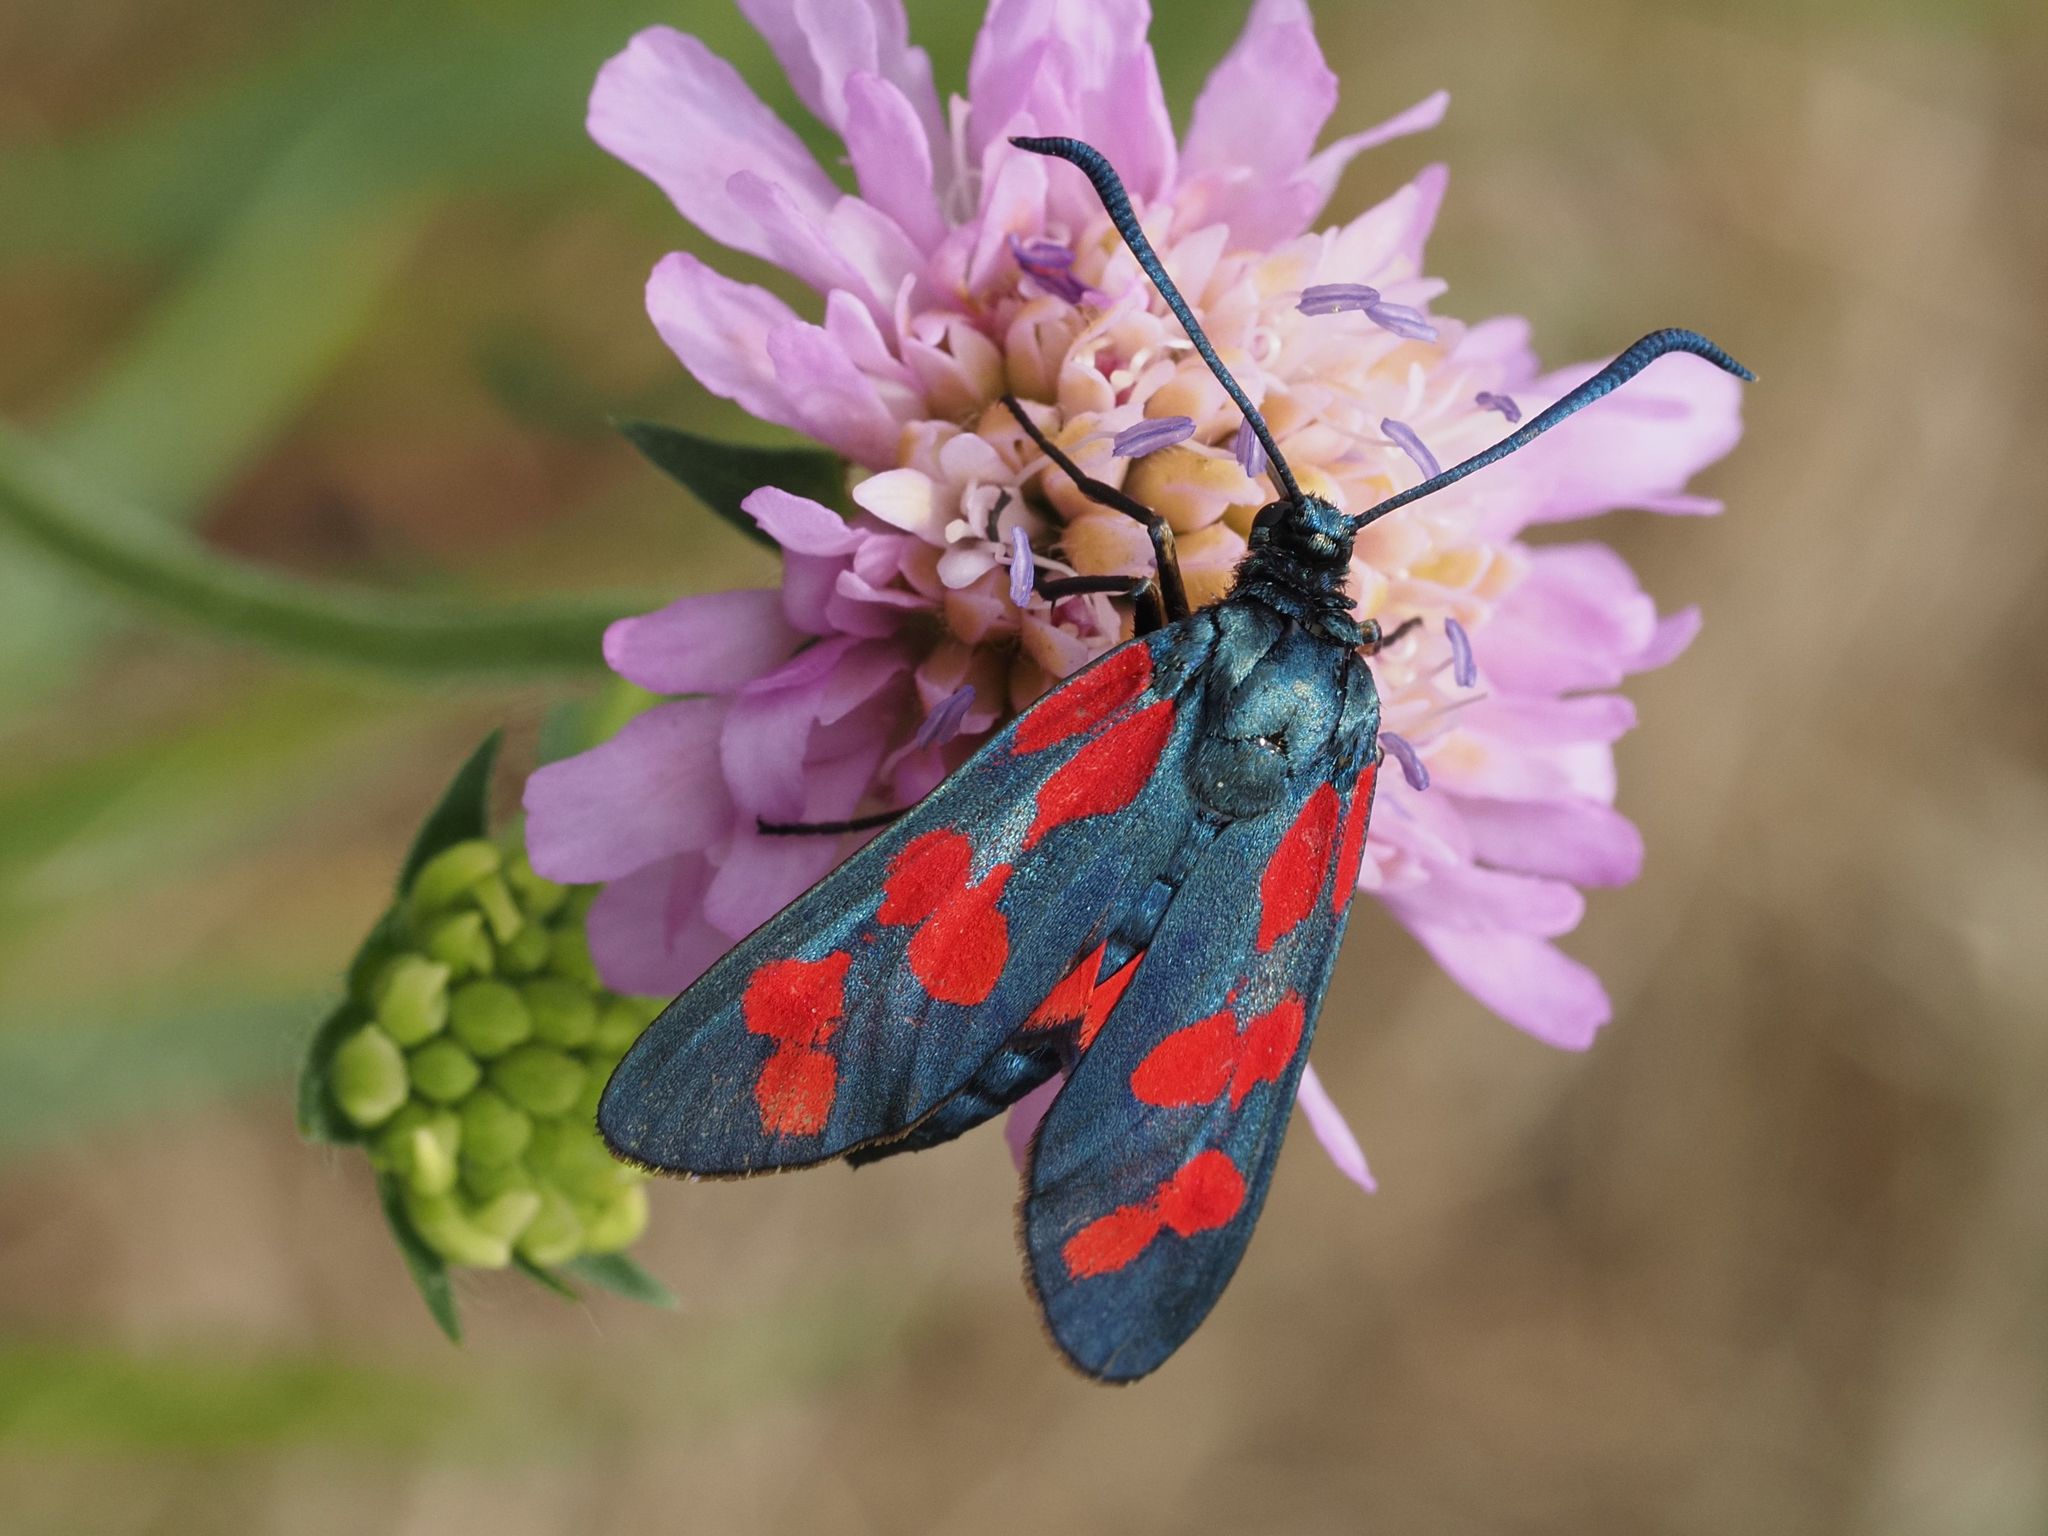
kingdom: Animalia
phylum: Arthropoda
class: Insecta
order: Lepidoptera
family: Zygaenidae
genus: Zygaena
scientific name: Zygaena filipendulae
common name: Six-spot burnet
